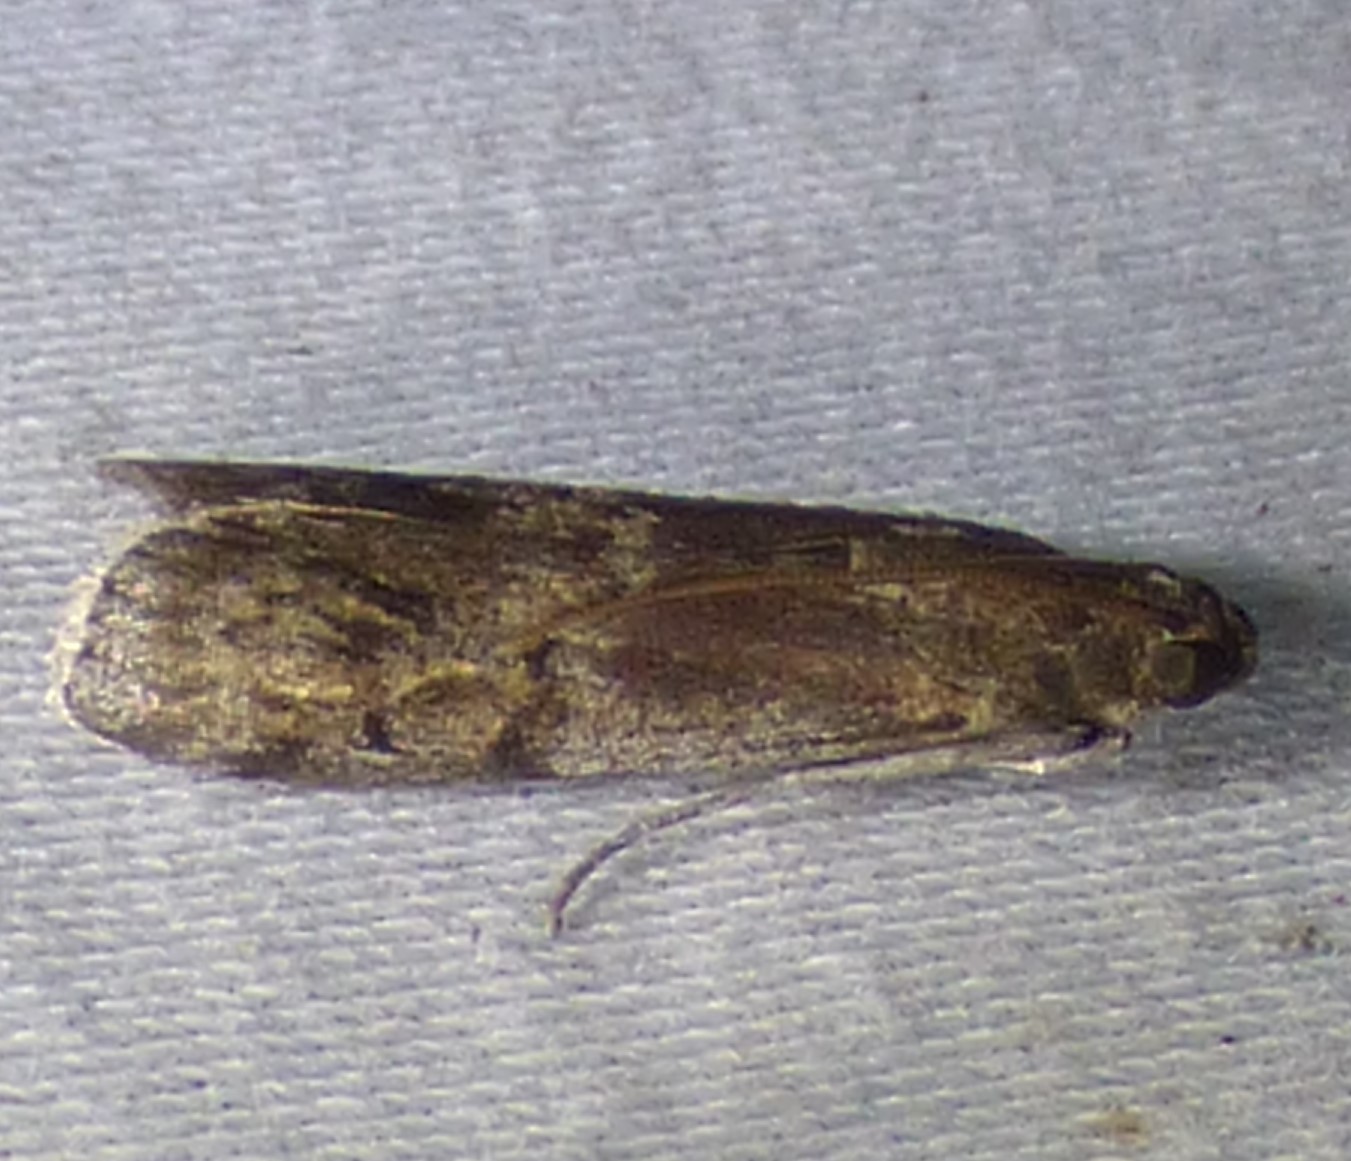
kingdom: Animalia
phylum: Arthropoda
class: Insecta
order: Lepidoptera
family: Pyralidae
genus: Euzophera
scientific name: Euzophera ostricolorella
